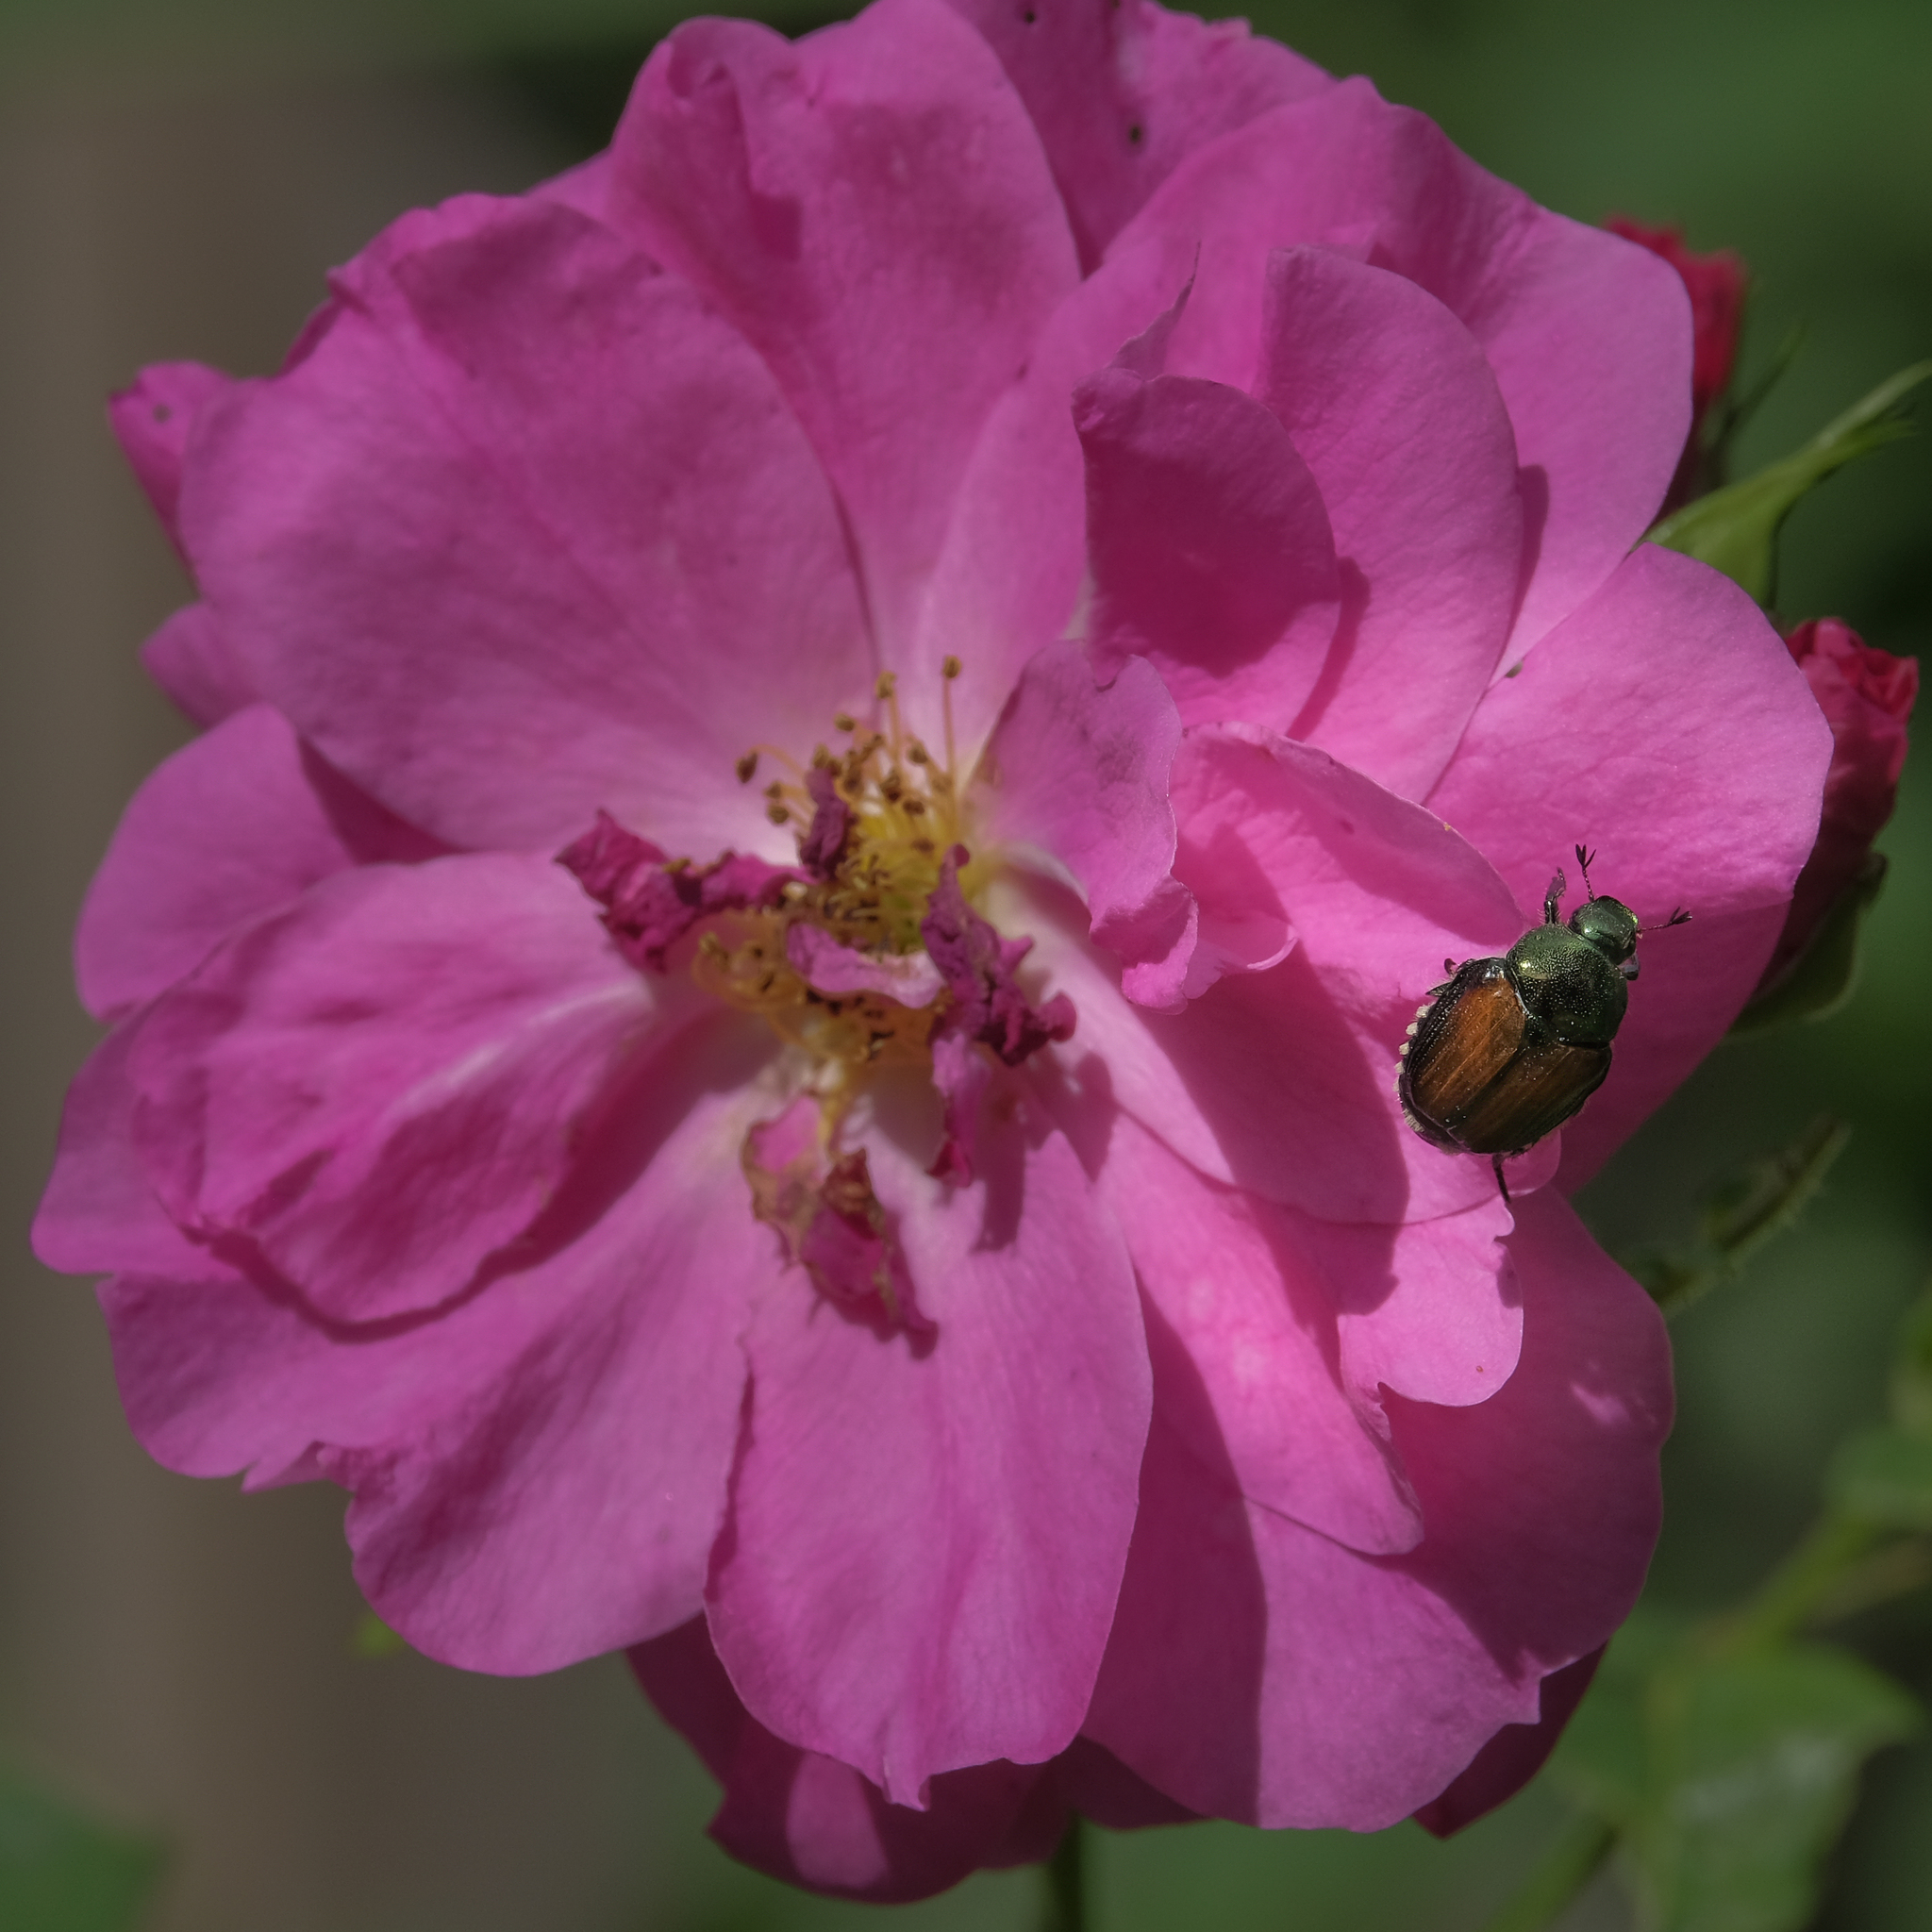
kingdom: Animalia
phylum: Arthropoda
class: Insecta
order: Coleoptera
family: Scarabaeidae
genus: Popillia
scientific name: Popillia japonica
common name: Japanese beetle
